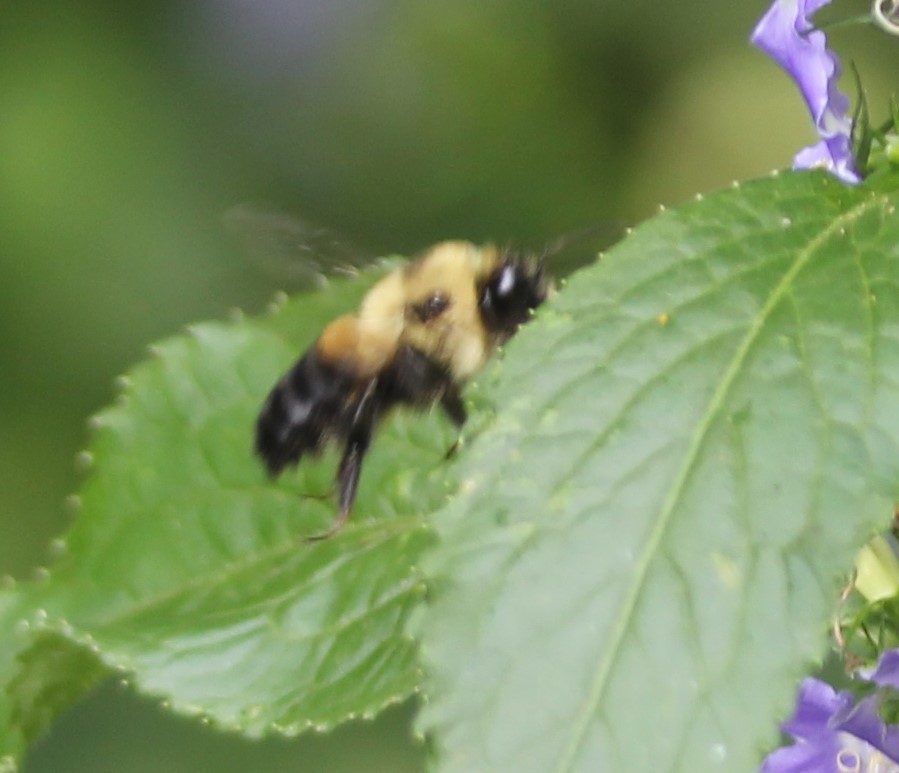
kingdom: Animalia
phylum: Arthropoda
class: Insecta
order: Hymenoptera
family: Apidae
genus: Bombus
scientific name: Bombus griseocollis
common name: Brown-belted bumble bee
